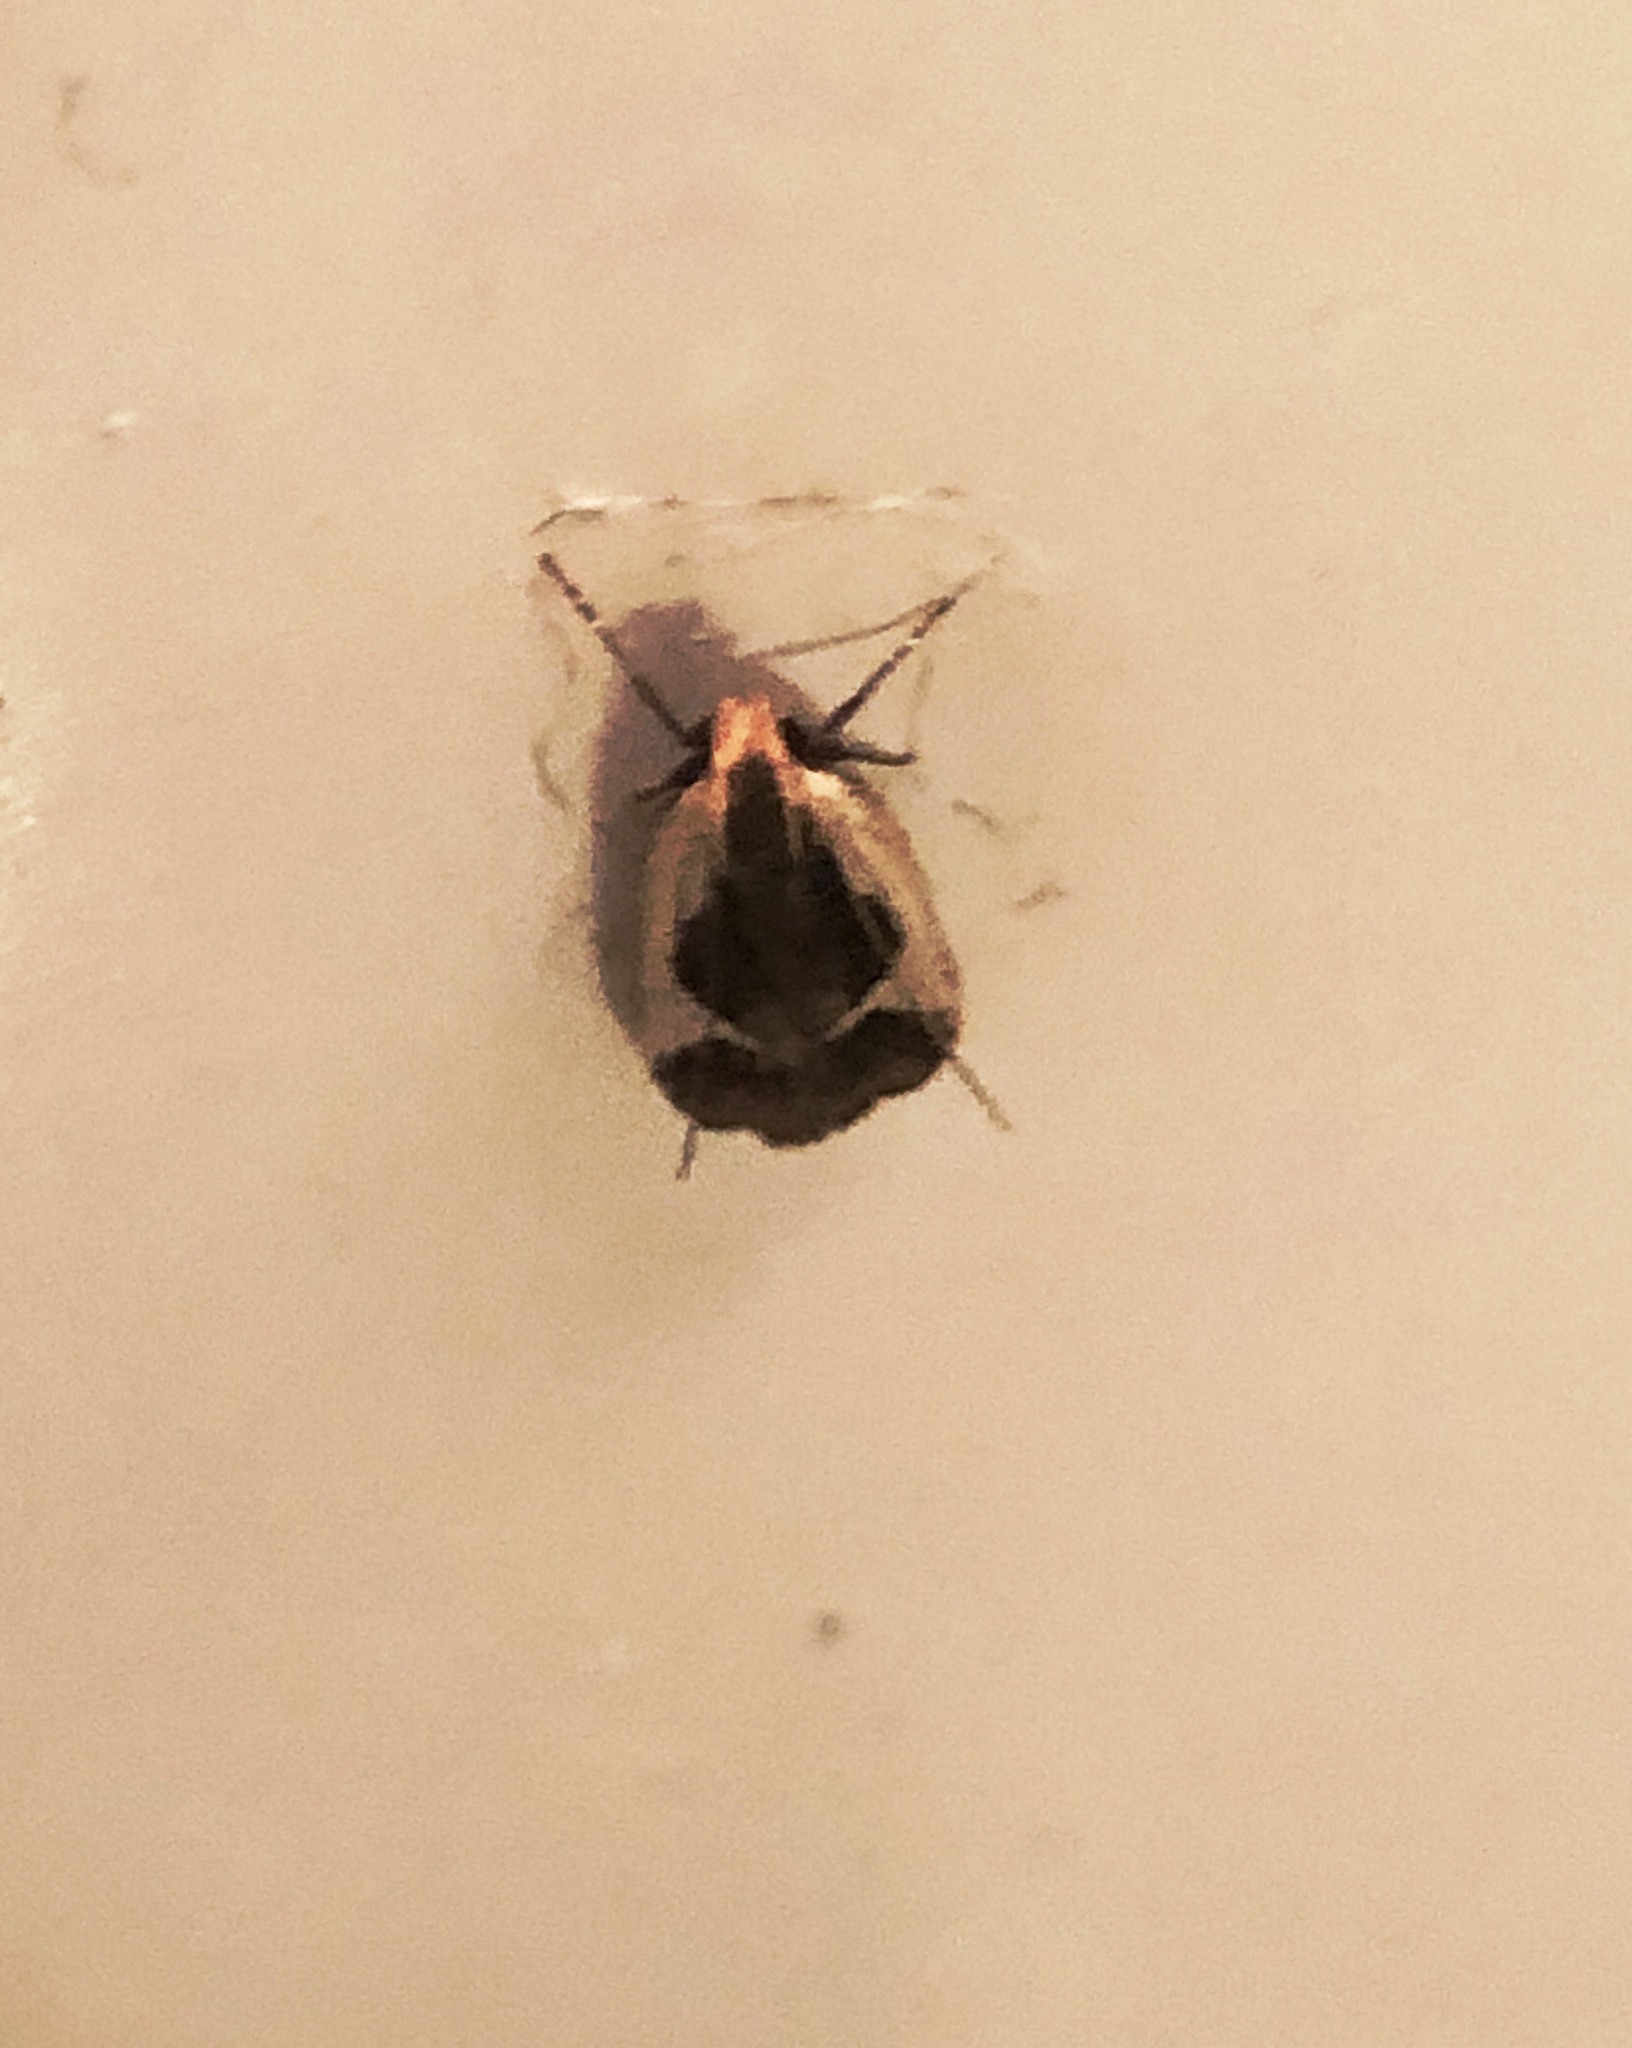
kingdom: Animalia
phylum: Arthropoda
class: Insecta
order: Lepidoptera
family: Gelechiidae
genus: Dichomeris
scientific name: Dichomeris flavocostella
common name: Cream-edged dichomeris moth
